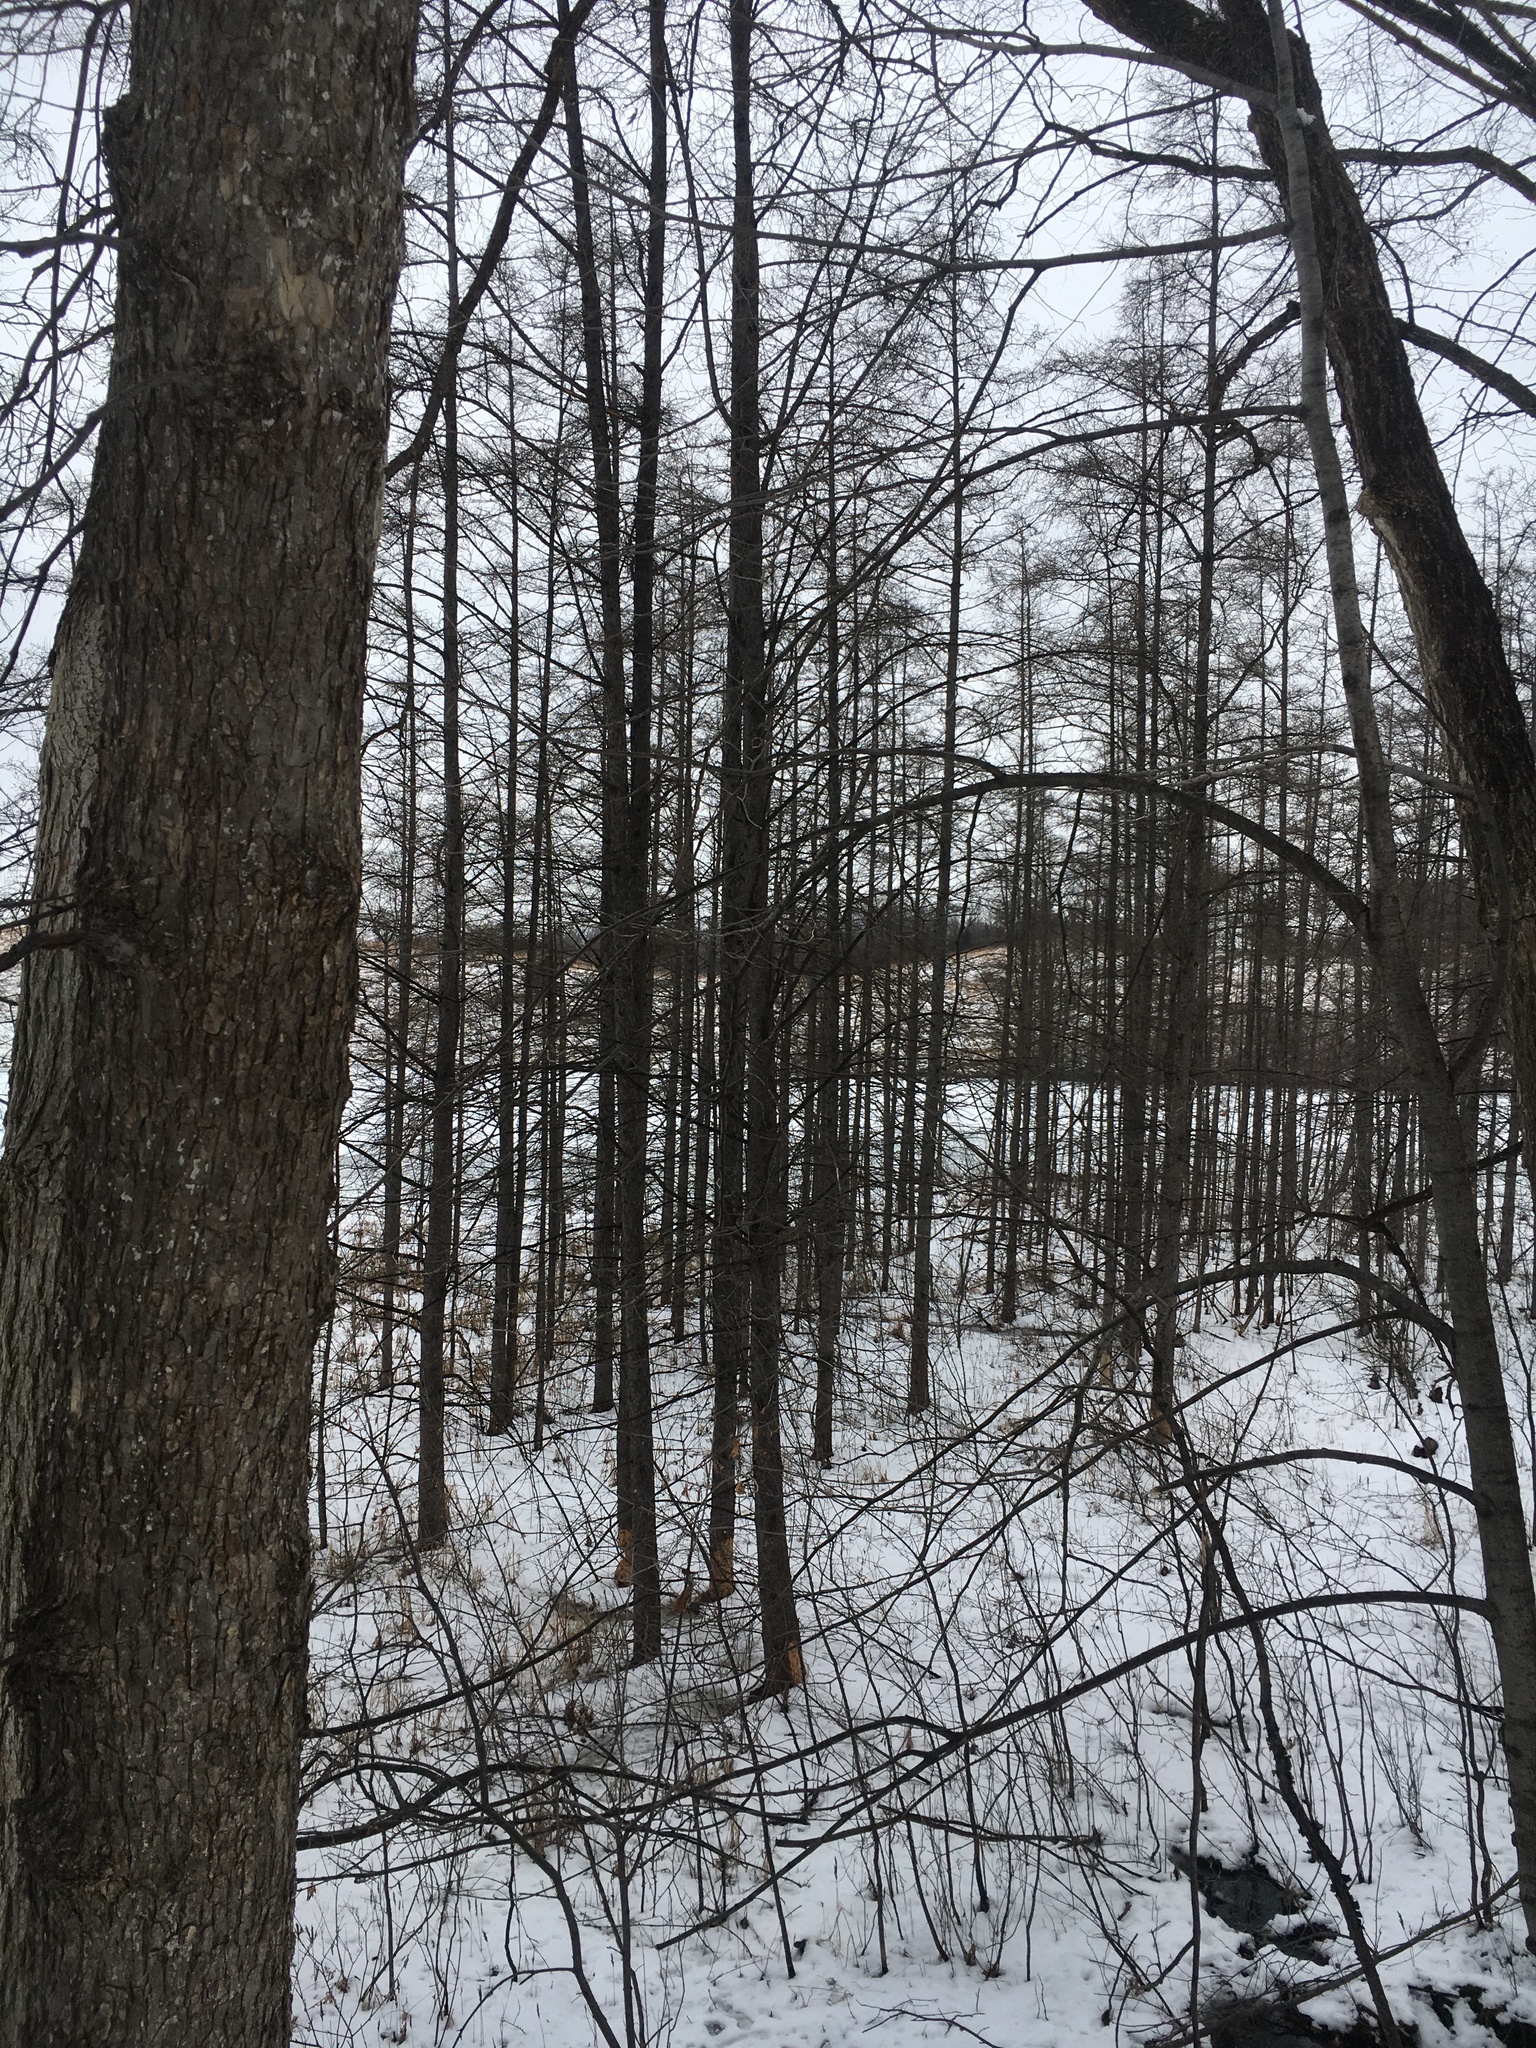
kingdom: Plantae
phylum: Tracheophyta
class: Pinopsida
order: Pinales
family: Pinaceae
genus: Larix
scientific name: Larix laricina
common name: American larch
